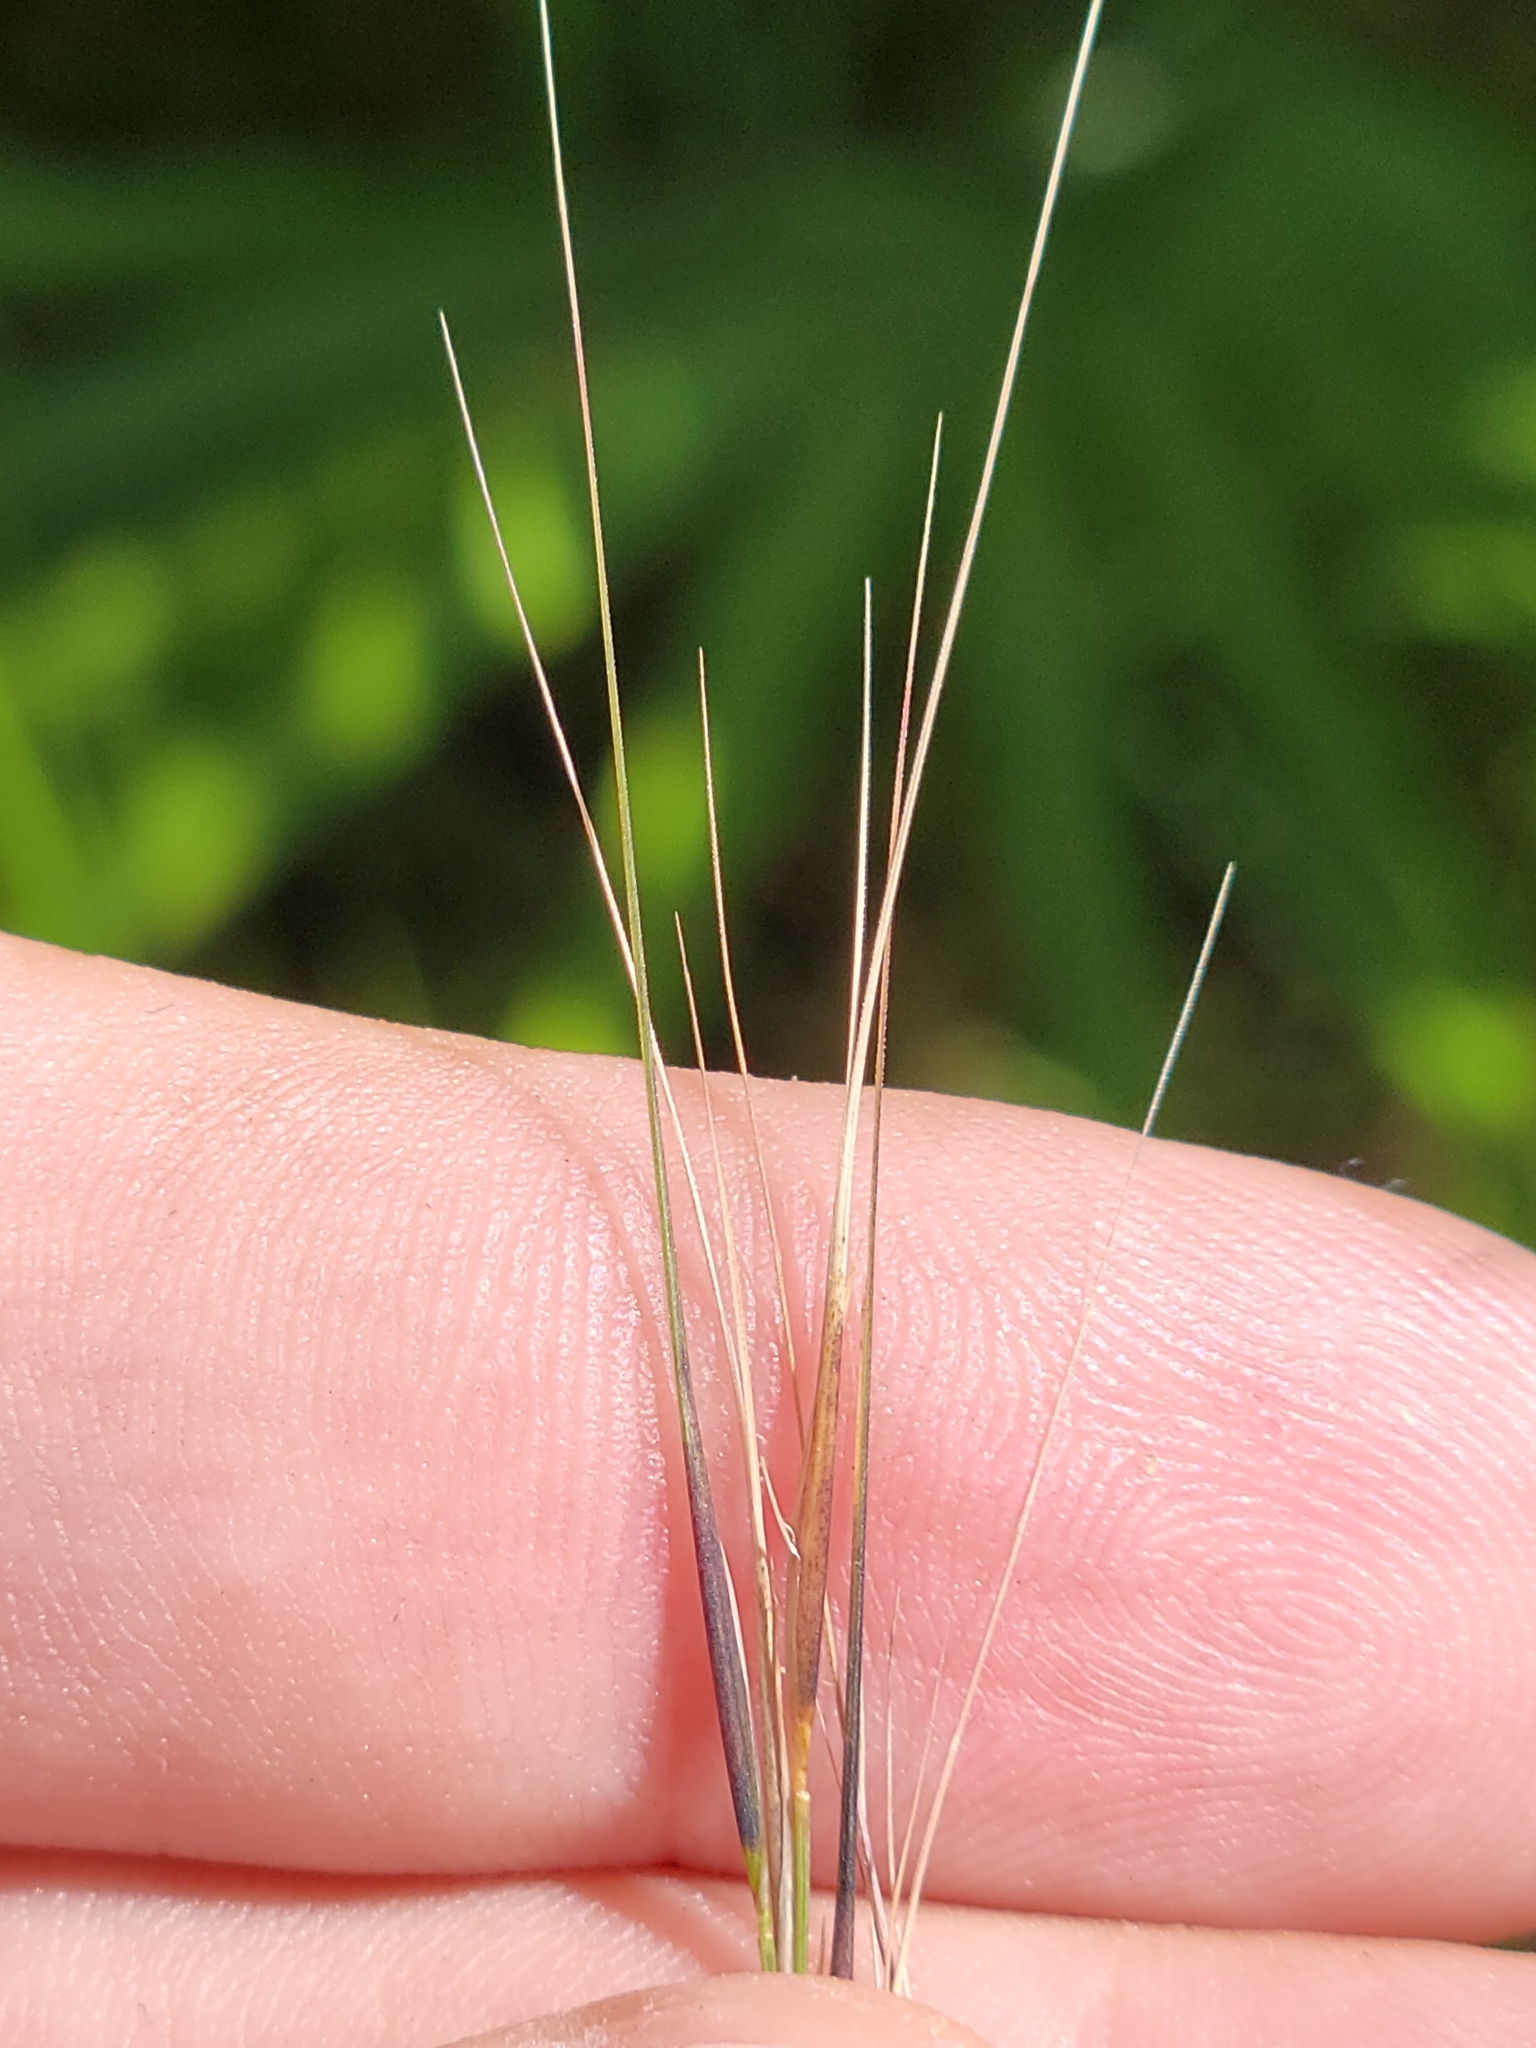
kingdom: Plantae
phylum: Tracheophyta
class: Liliopsida
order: Poales
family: Poaceae
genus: Aristida
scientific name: Aristida patula
